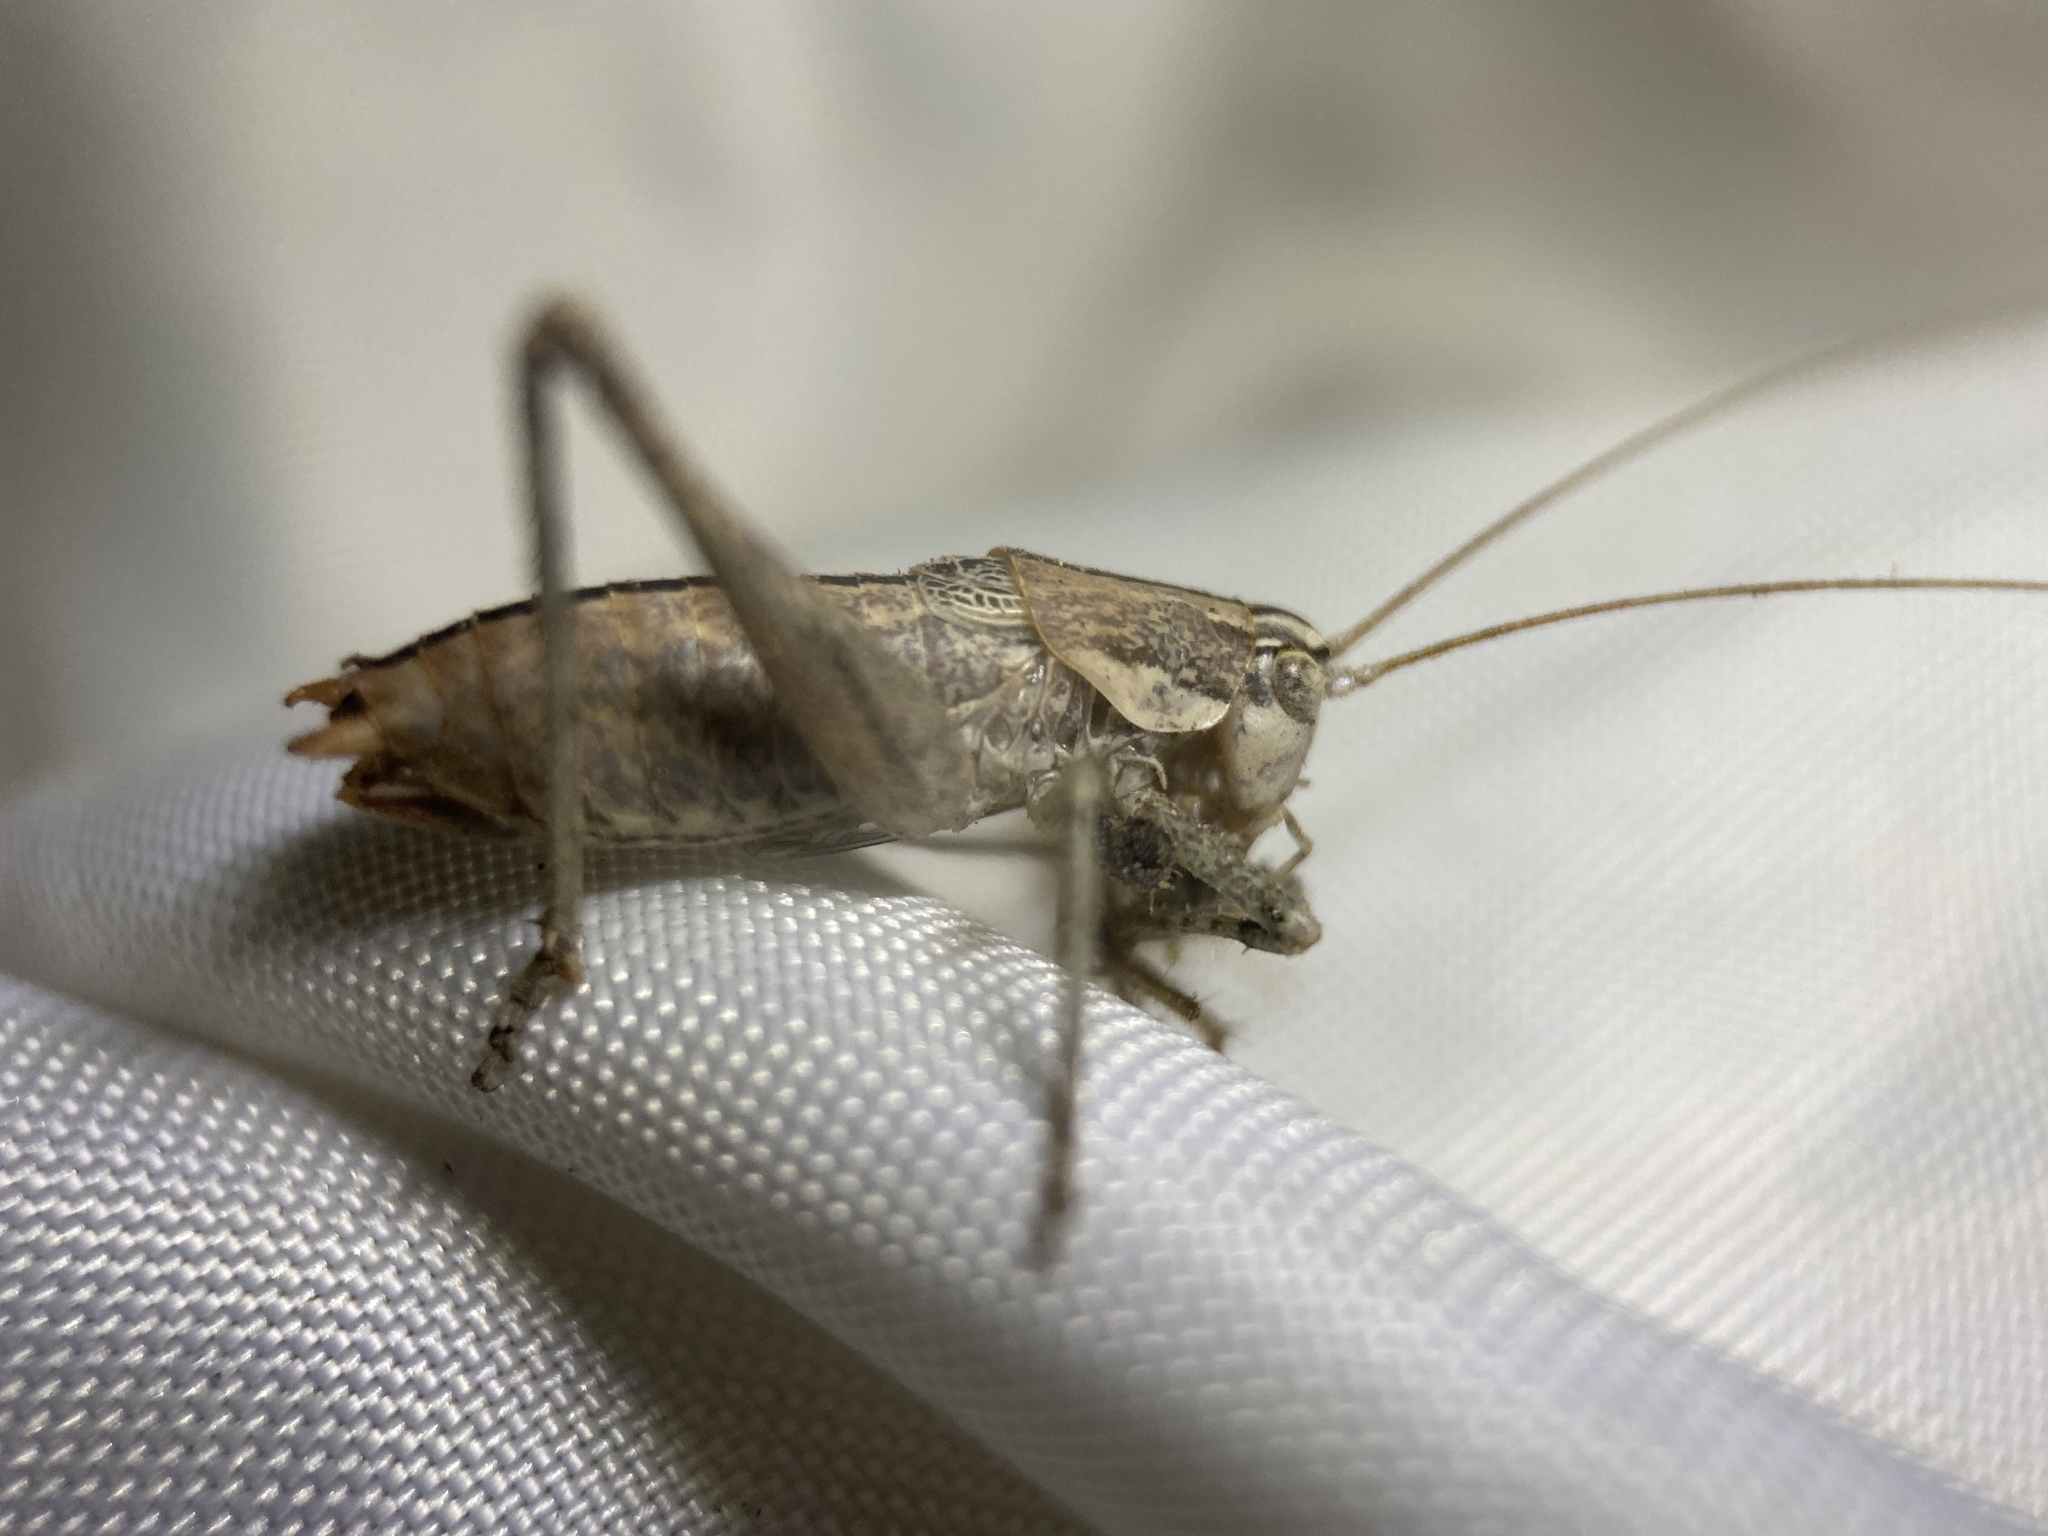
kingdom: Animalia
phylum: Arthropoda
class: Insecta
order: Orthoptera
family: Tettigoniidae
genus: Ateloplus
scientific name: Ateloplus luteus
